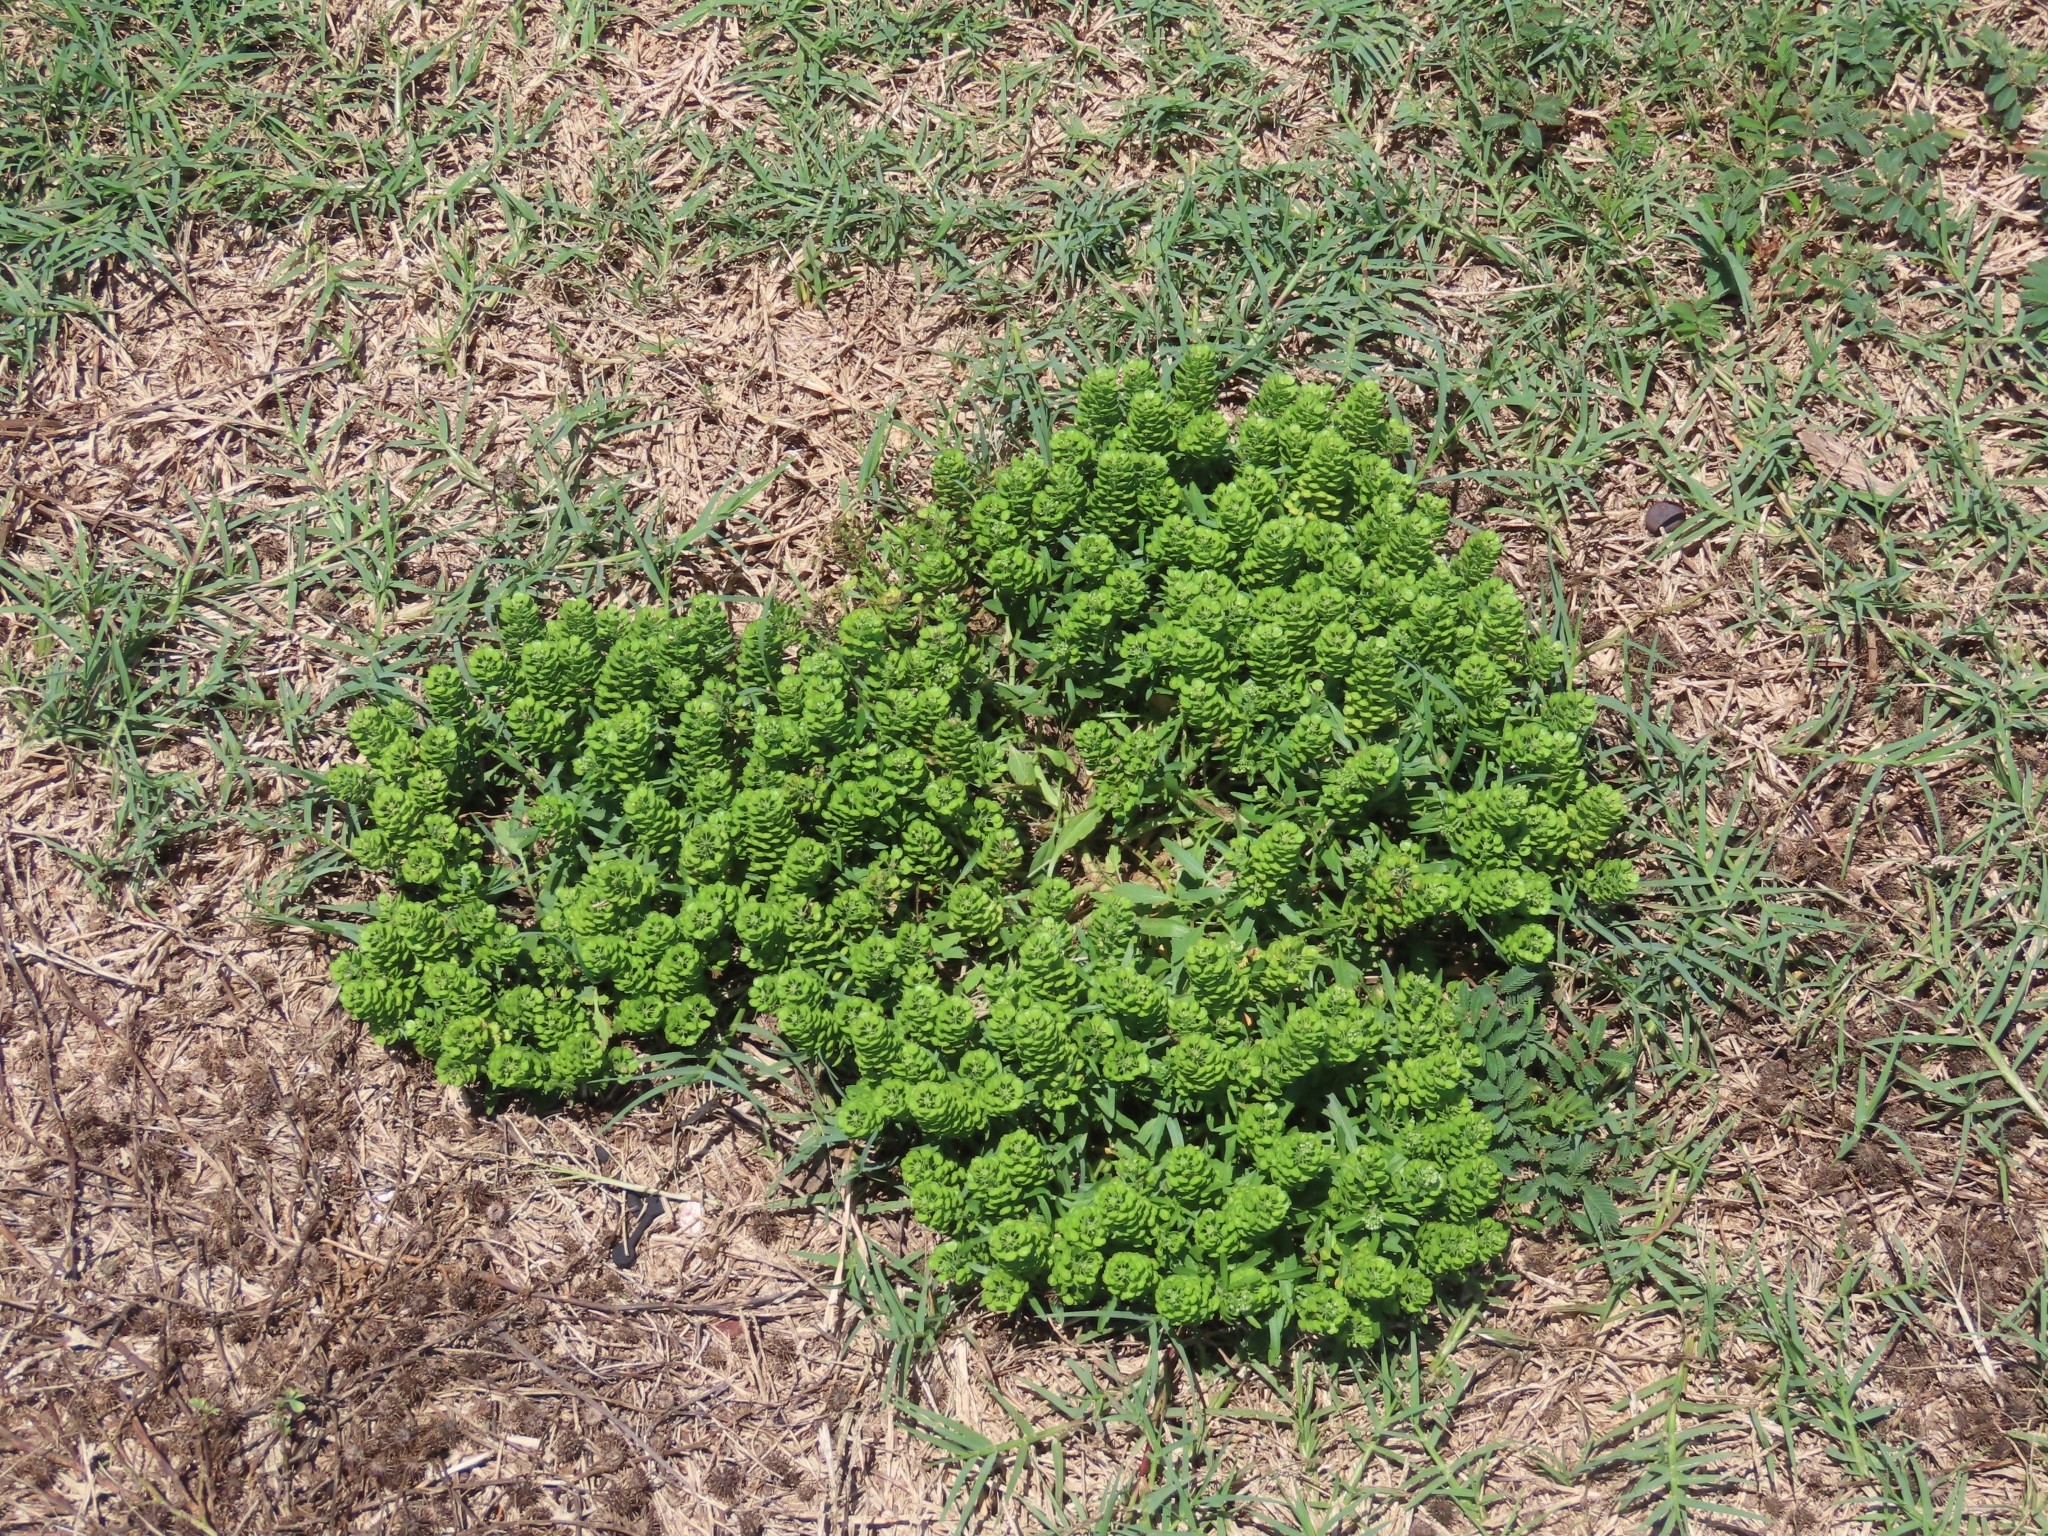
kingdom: Plantae
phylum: Tracheophyta
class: Magnoliopsida
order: Brassicales
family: Brassicaceae
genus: Lepidium
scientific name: Lepidium virginicum
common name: Least pepperwort
